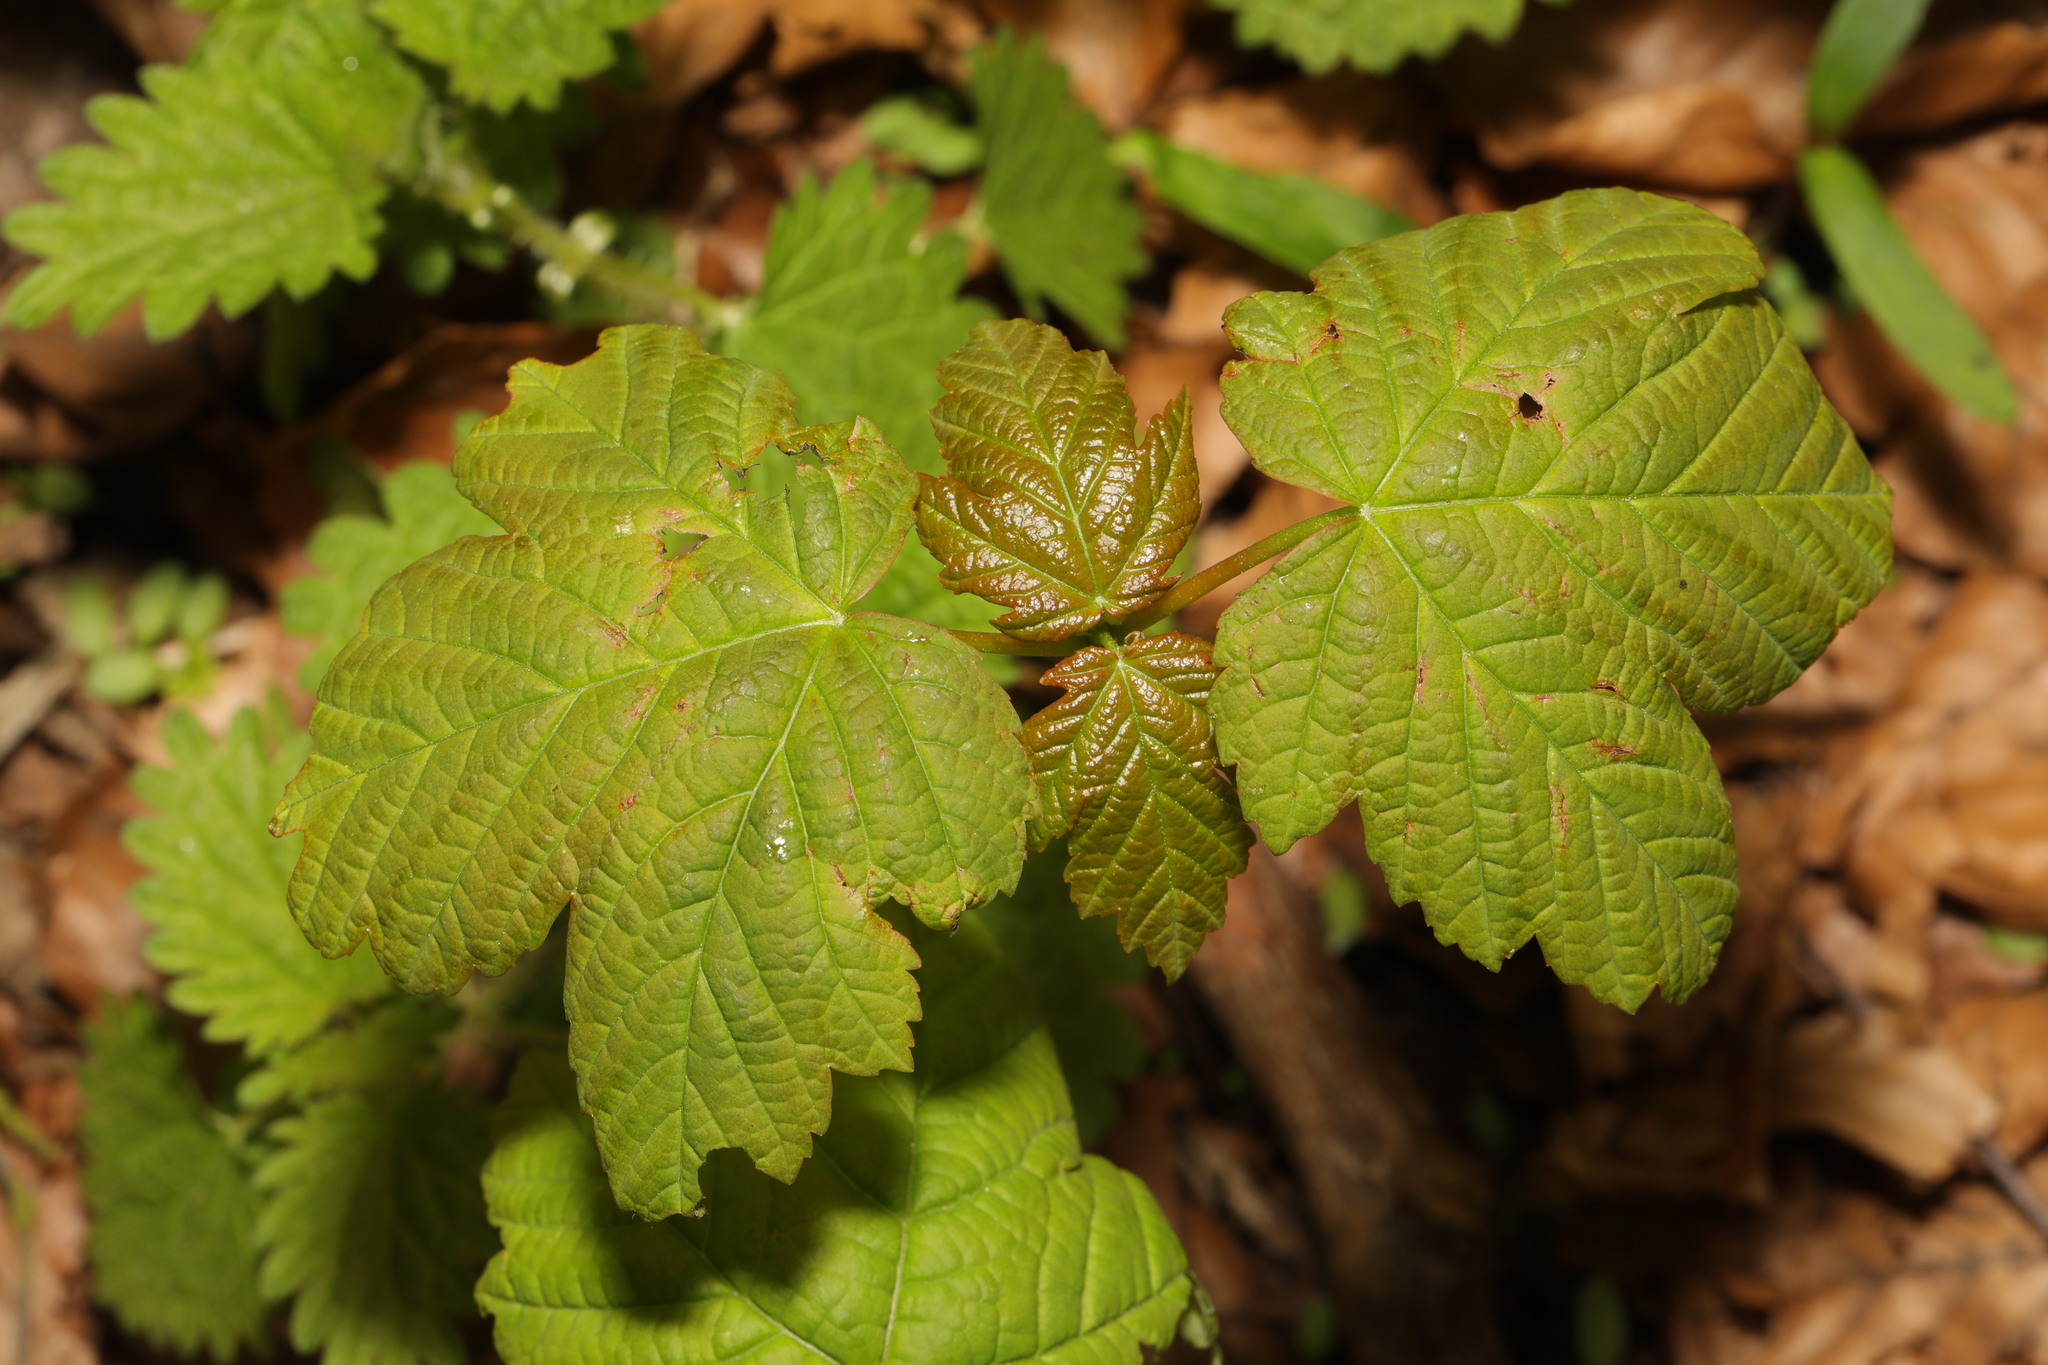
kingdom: Plantae
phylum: Tracheophyta
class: Magnoliopsida
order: Sapindales
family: Sapindaceae
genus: Acer
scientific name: Acer pseudoplatanus
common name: Sycamore
